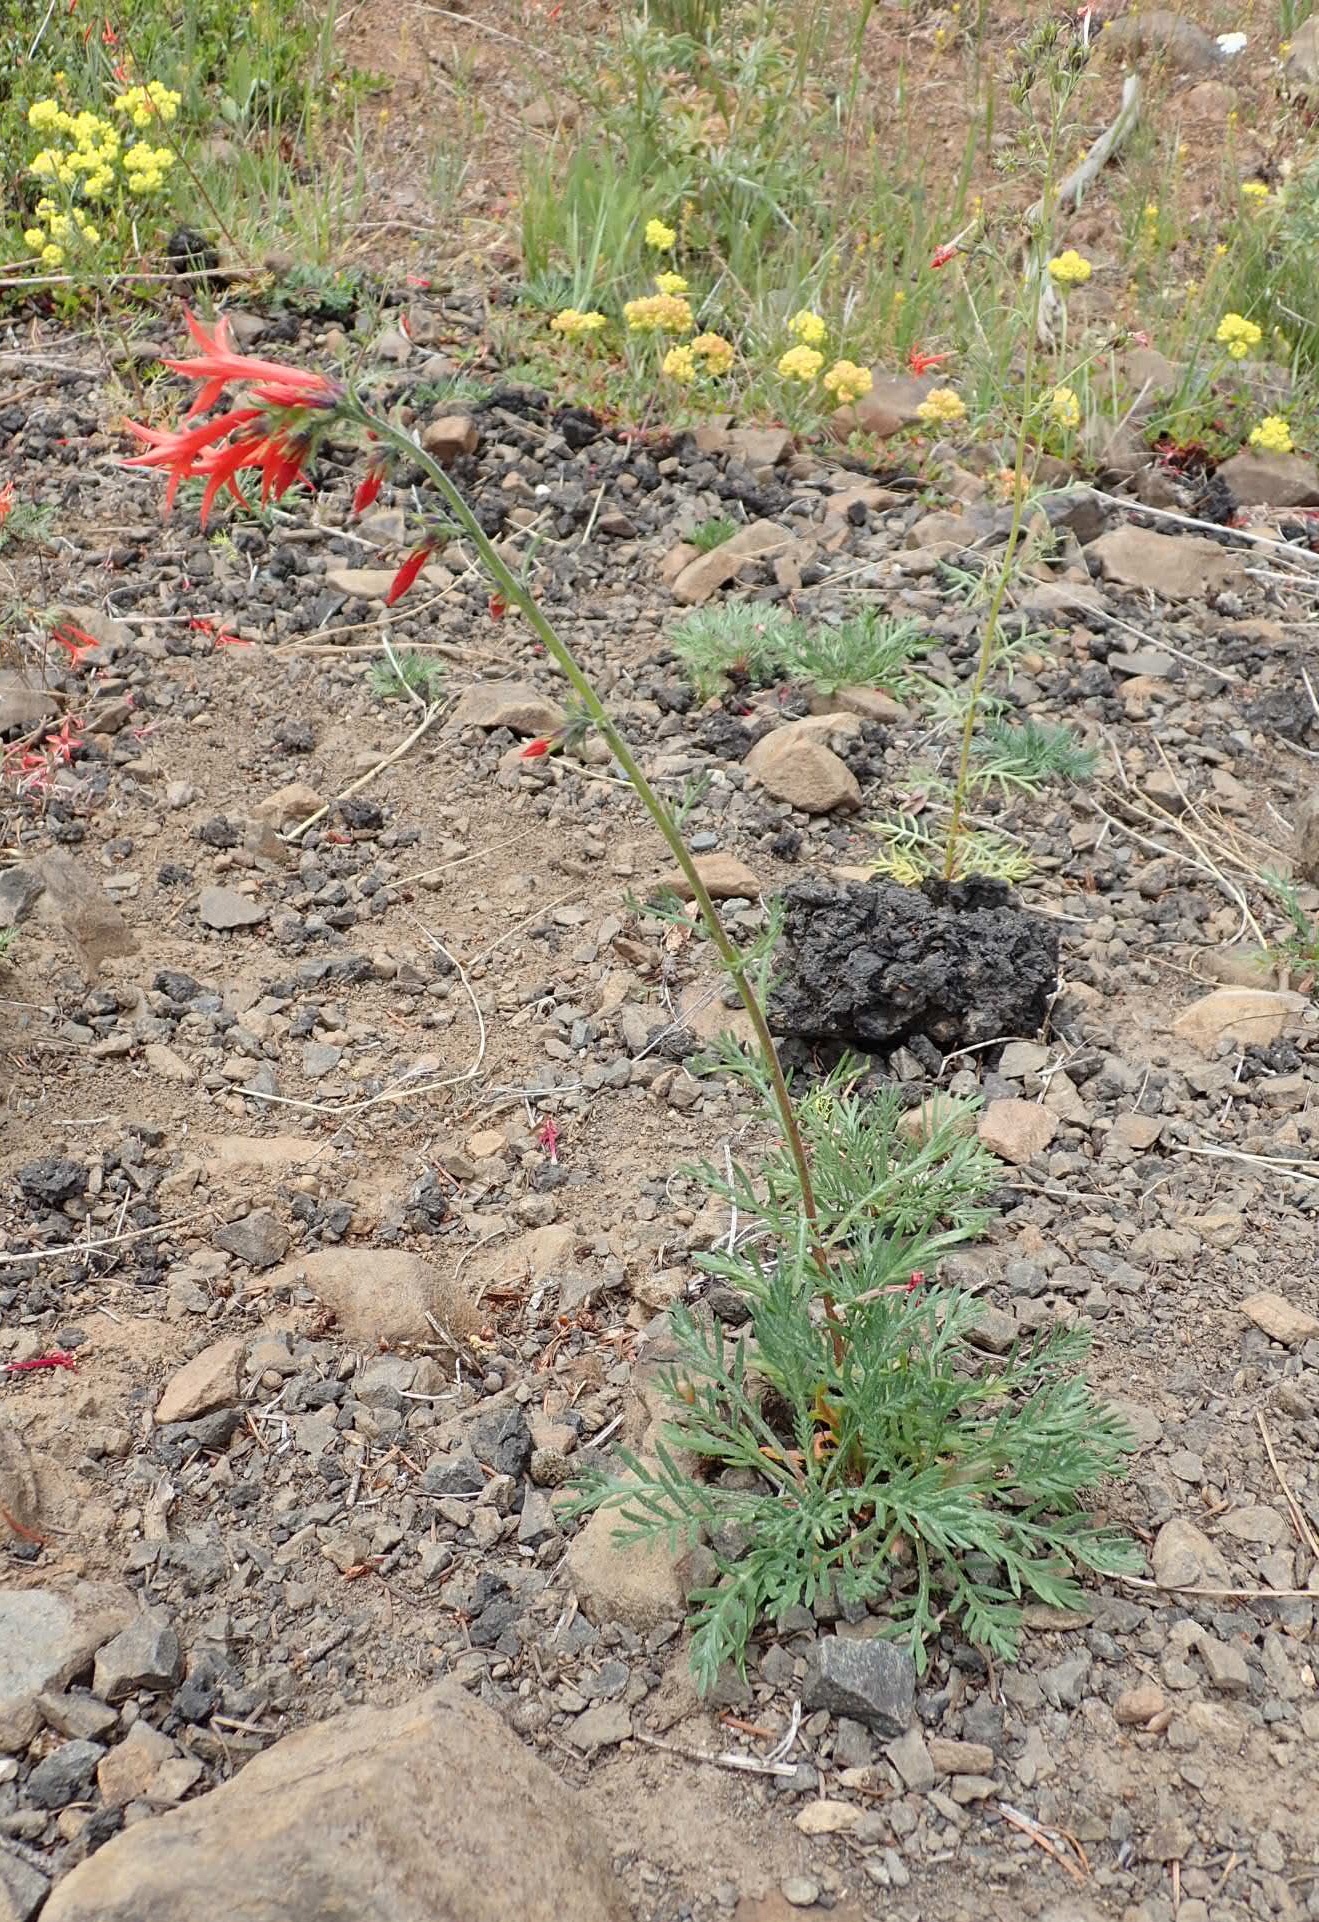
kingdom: Plantae
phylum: Tracheophyta
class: Magnoliopsida
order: Ericales
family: Polemoniaceae
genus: Ipomopsis
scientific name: Ipomopsis aggregata
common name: Scarlet gilia
